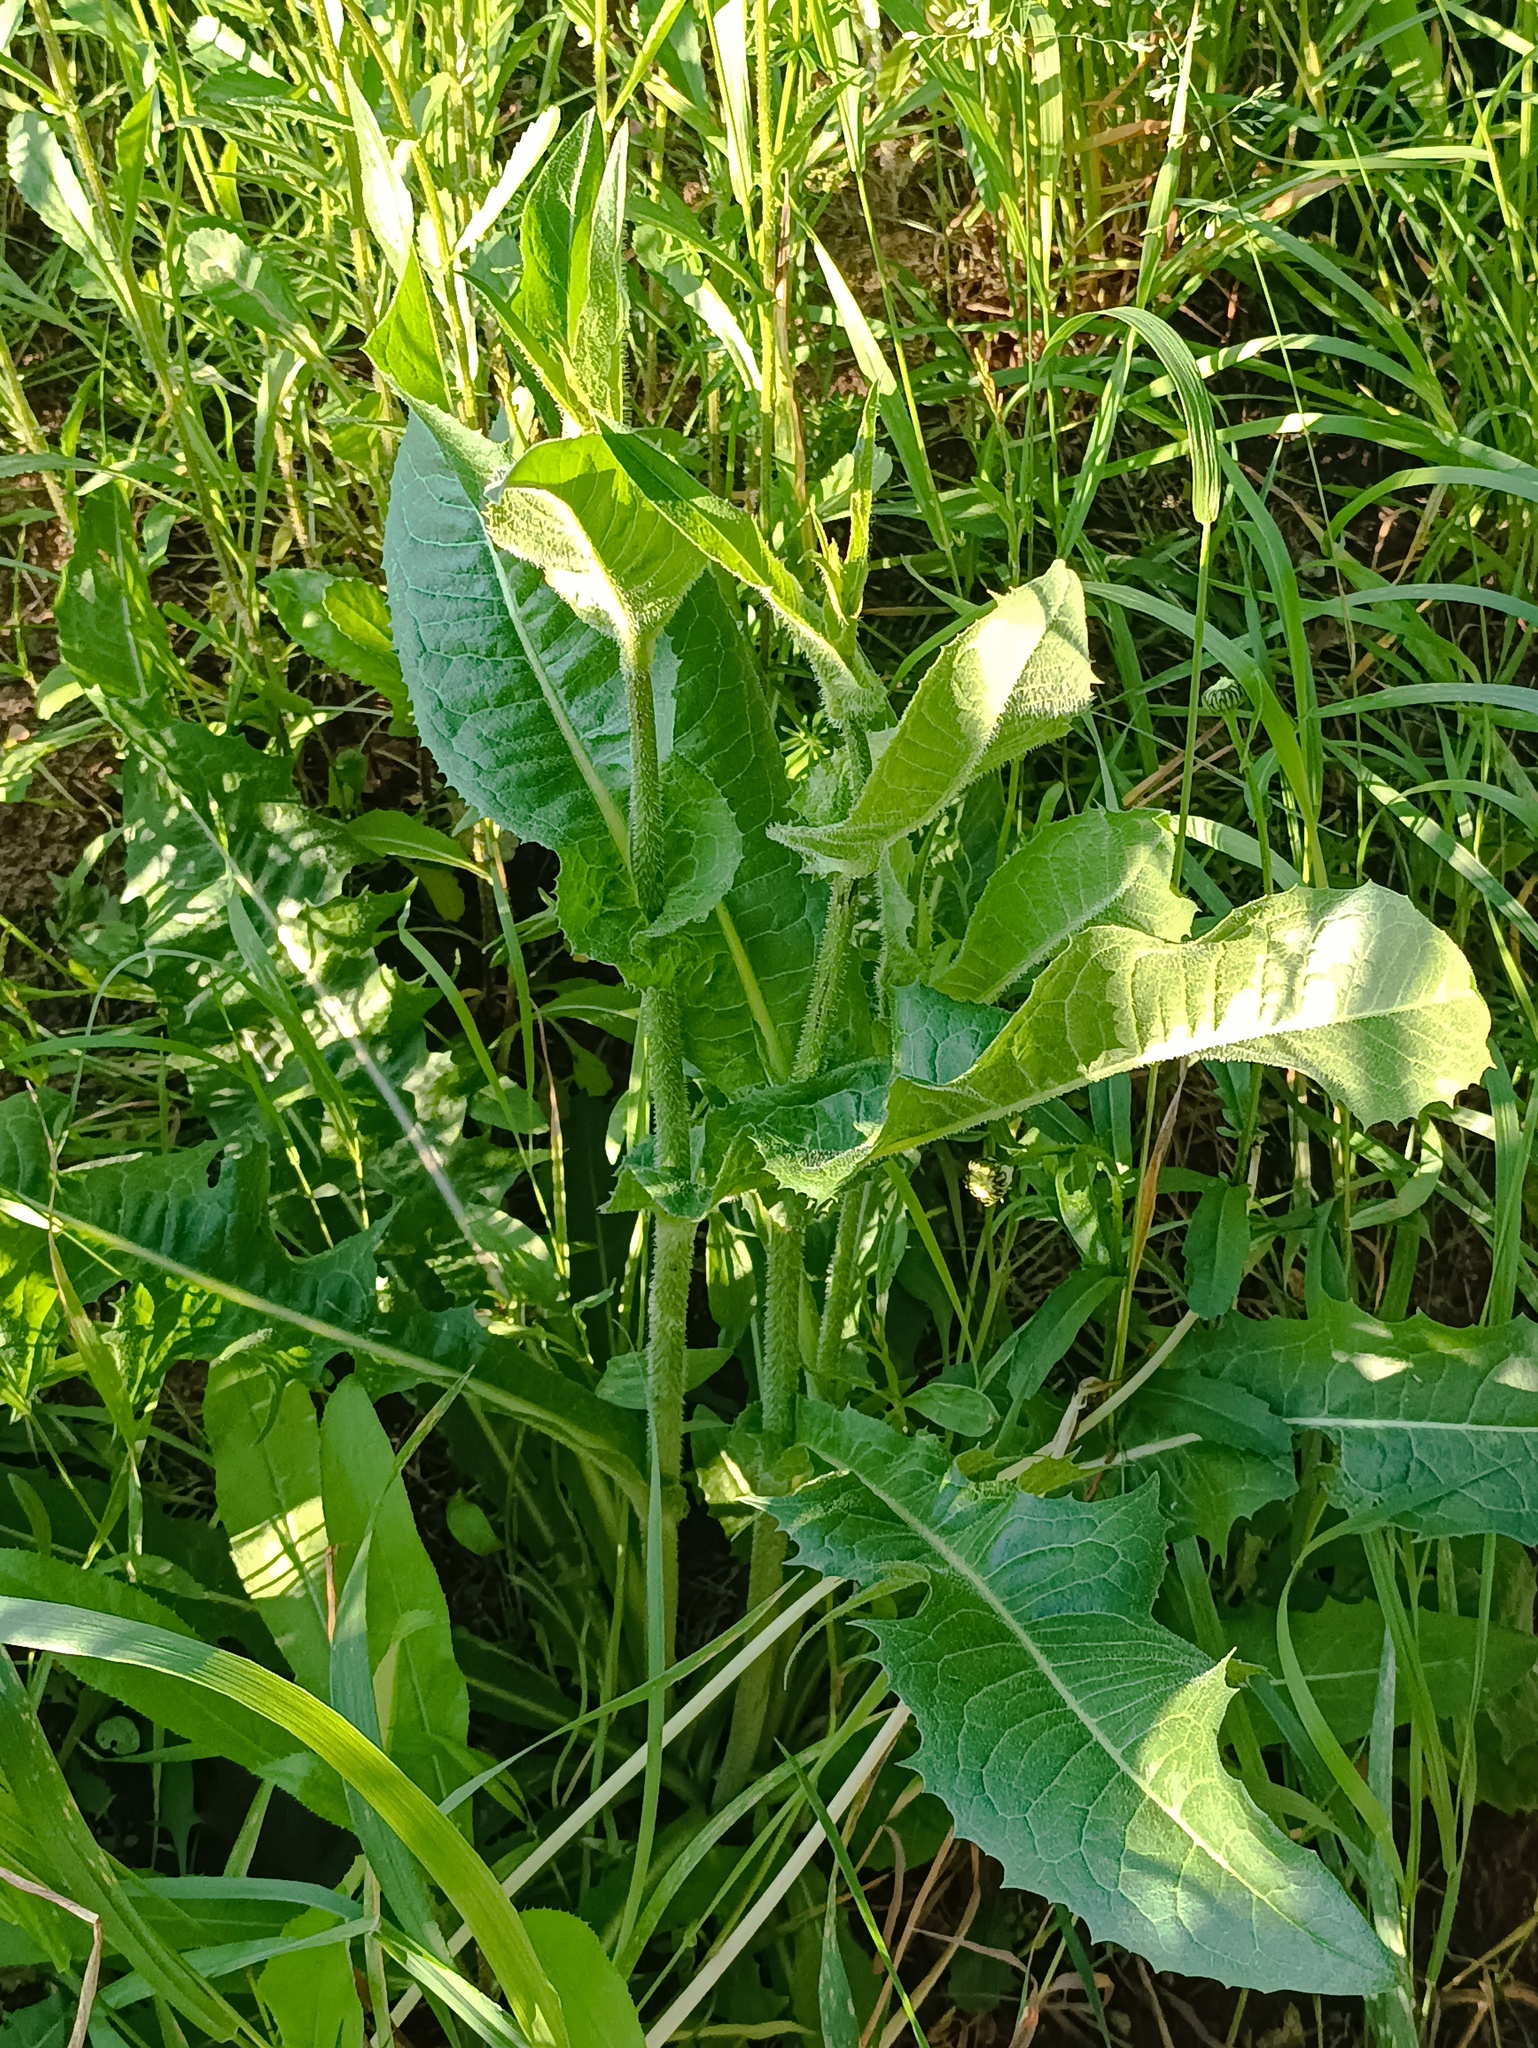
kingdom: Plantae
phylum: Tracheophyta
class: Magnoliopsida
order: Asterales
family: Asteraceae
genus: Cichorium
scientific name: Cichorium intybus
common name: Chicory
